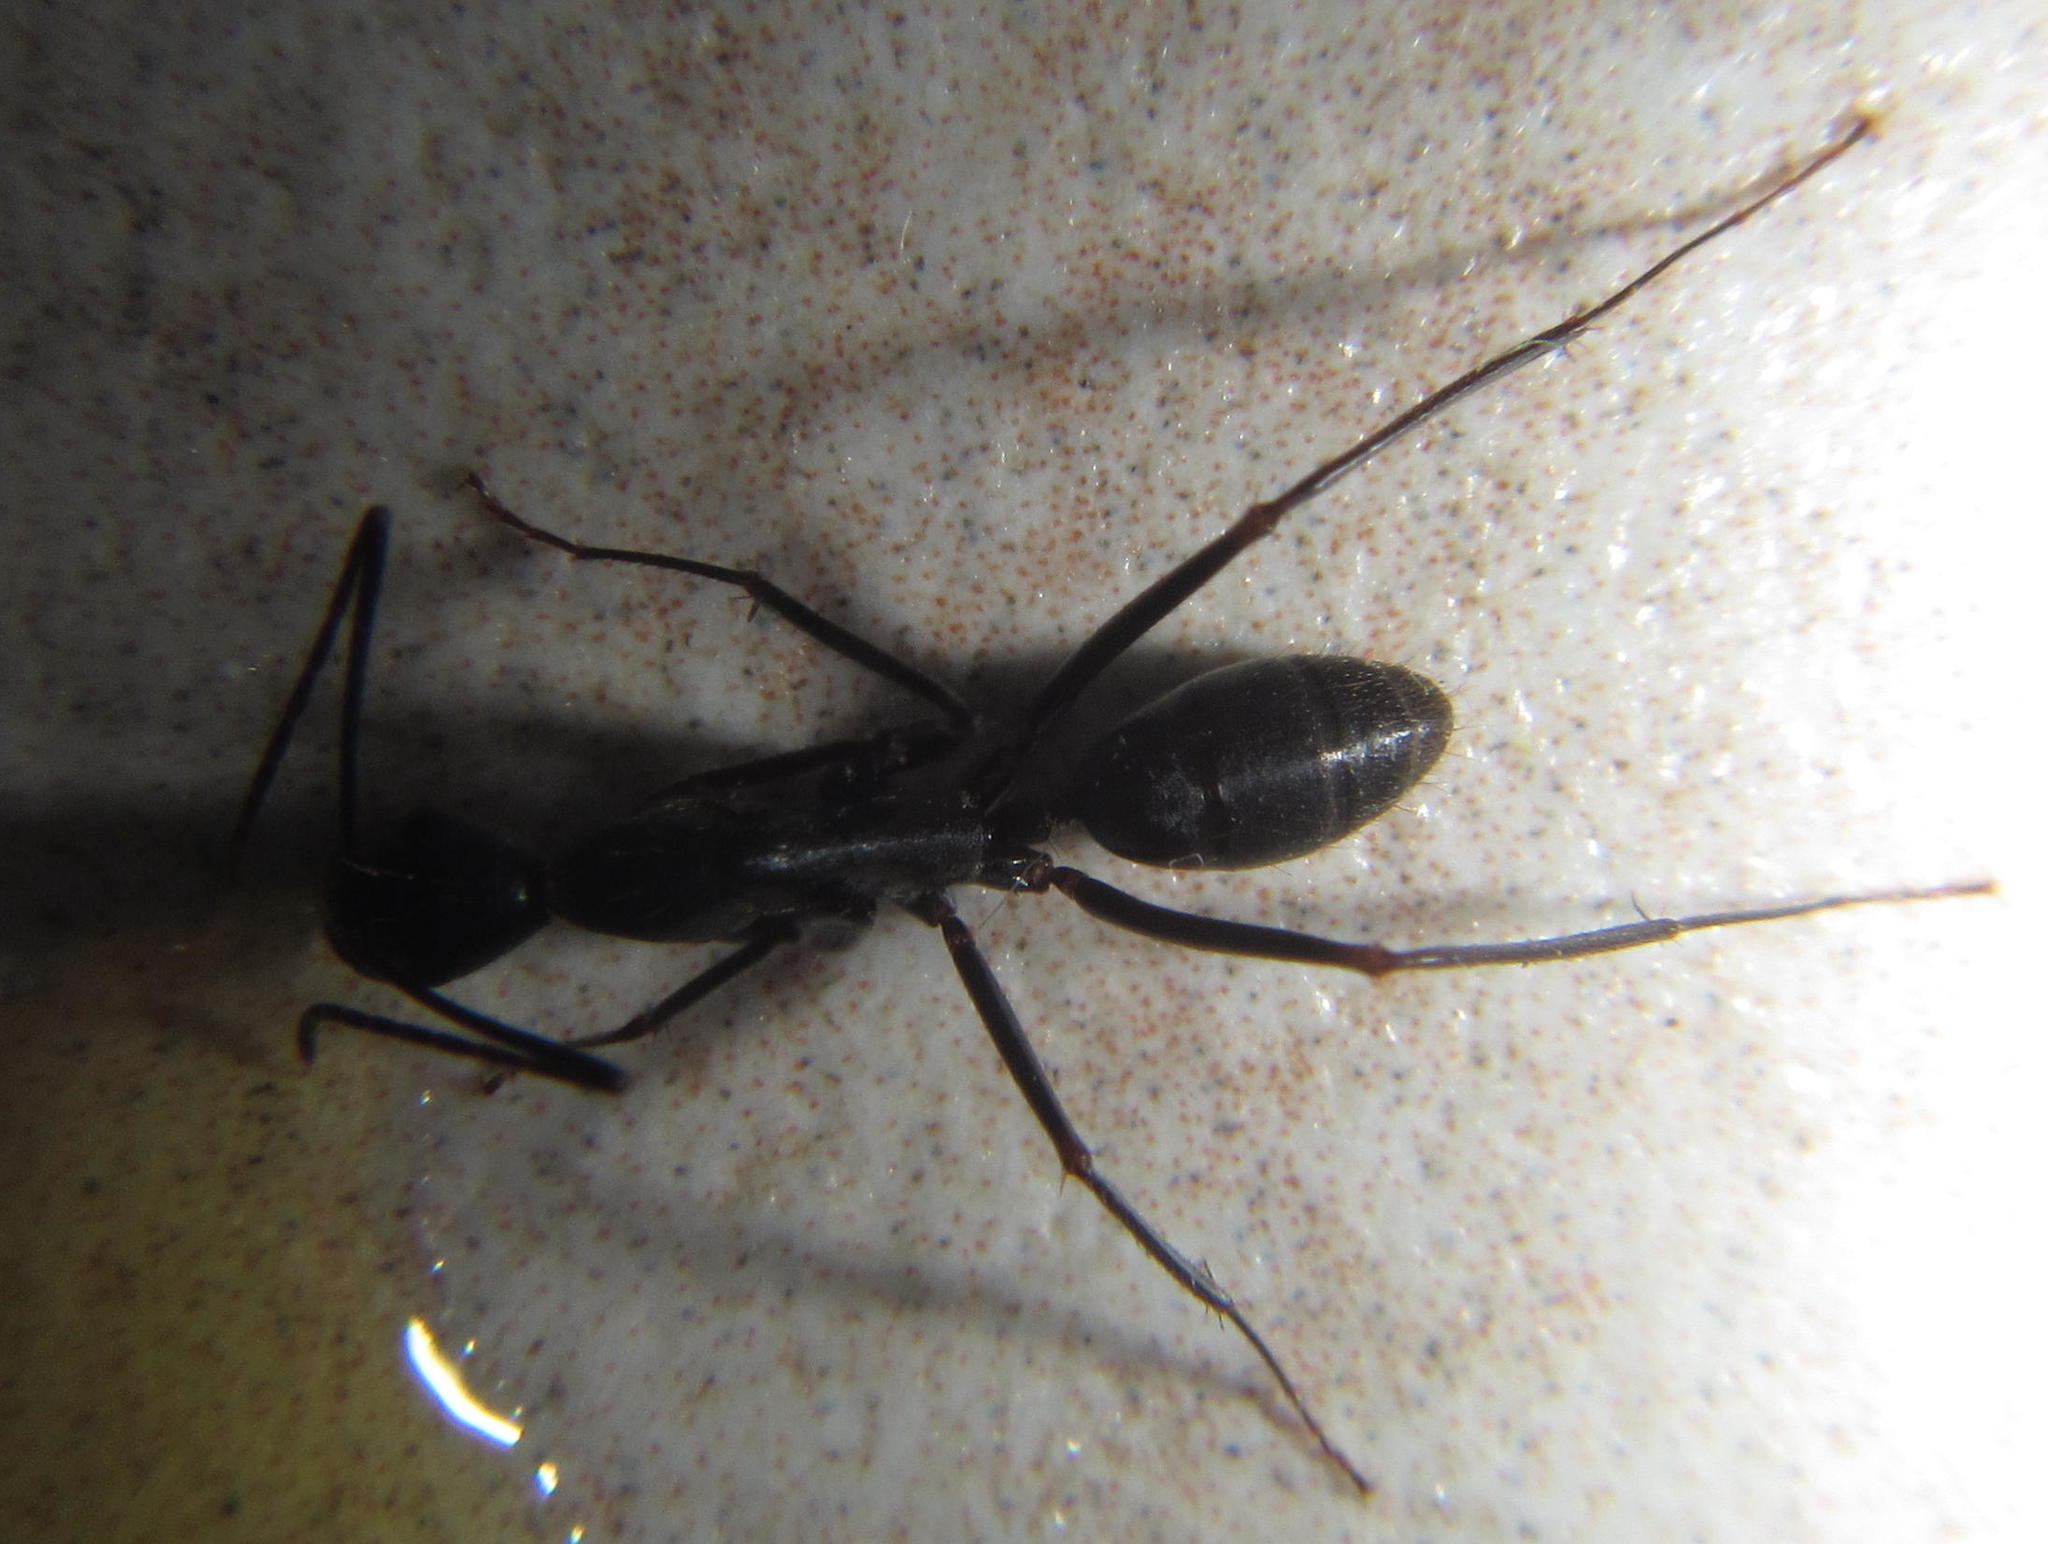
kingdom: Animalia
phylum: Arthropoda
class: Insecta
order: Hymenoptera
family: Formicidae
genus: Camponotus
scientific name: Camponotus natalensis
